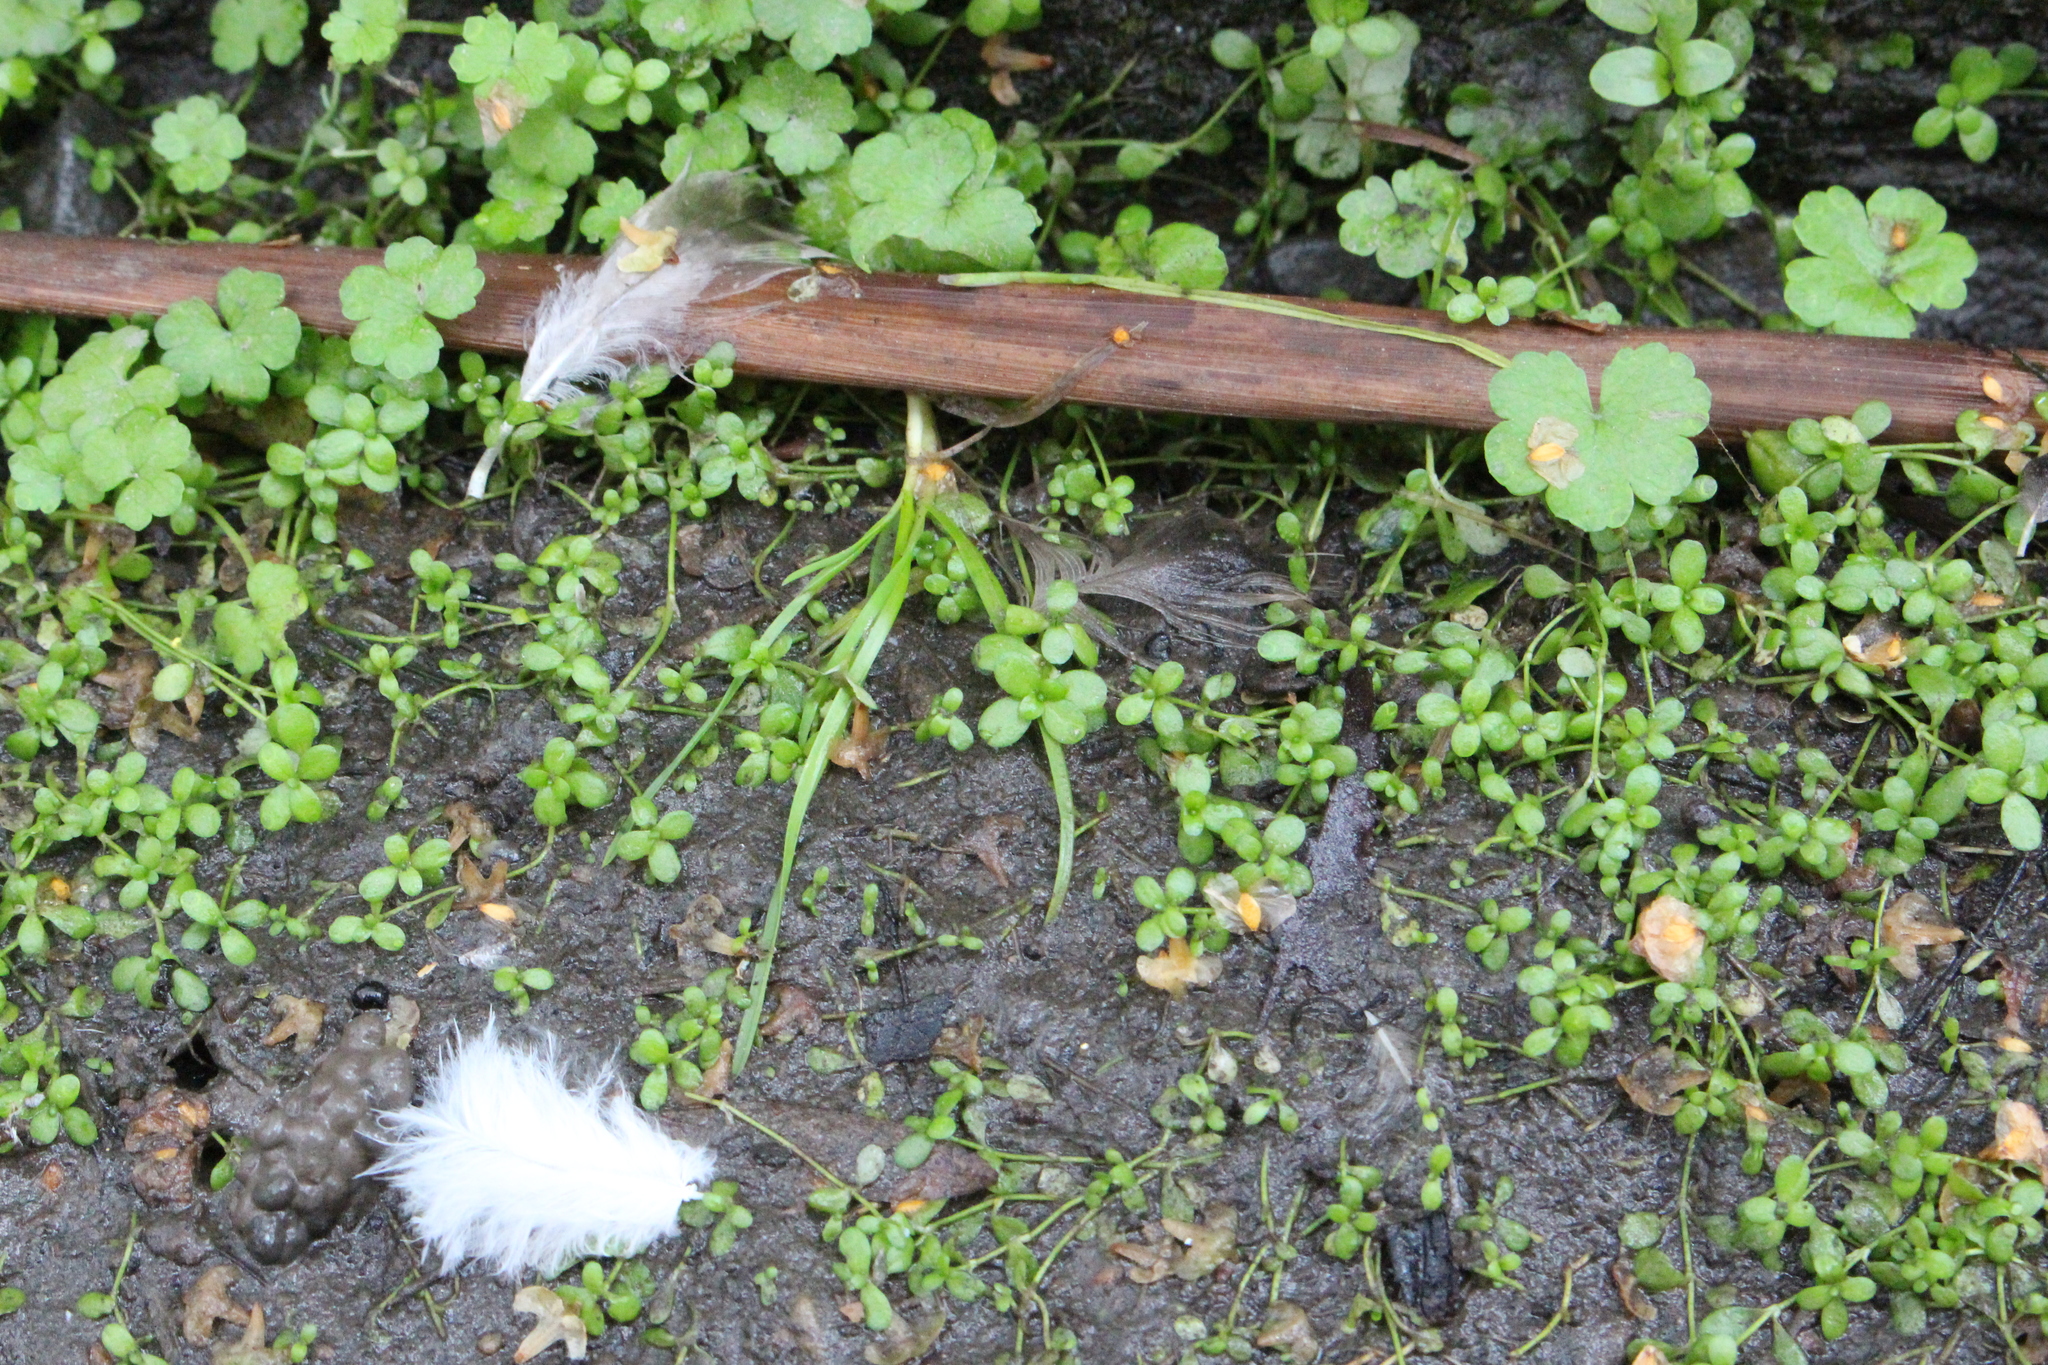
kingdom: Plantae
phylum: Tracheophyta
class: Magnoliopsida
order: Lamiales
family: Plantaginaceae
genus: Callitriche
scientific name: Callitriche stagnalis
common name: Common water-starwort
